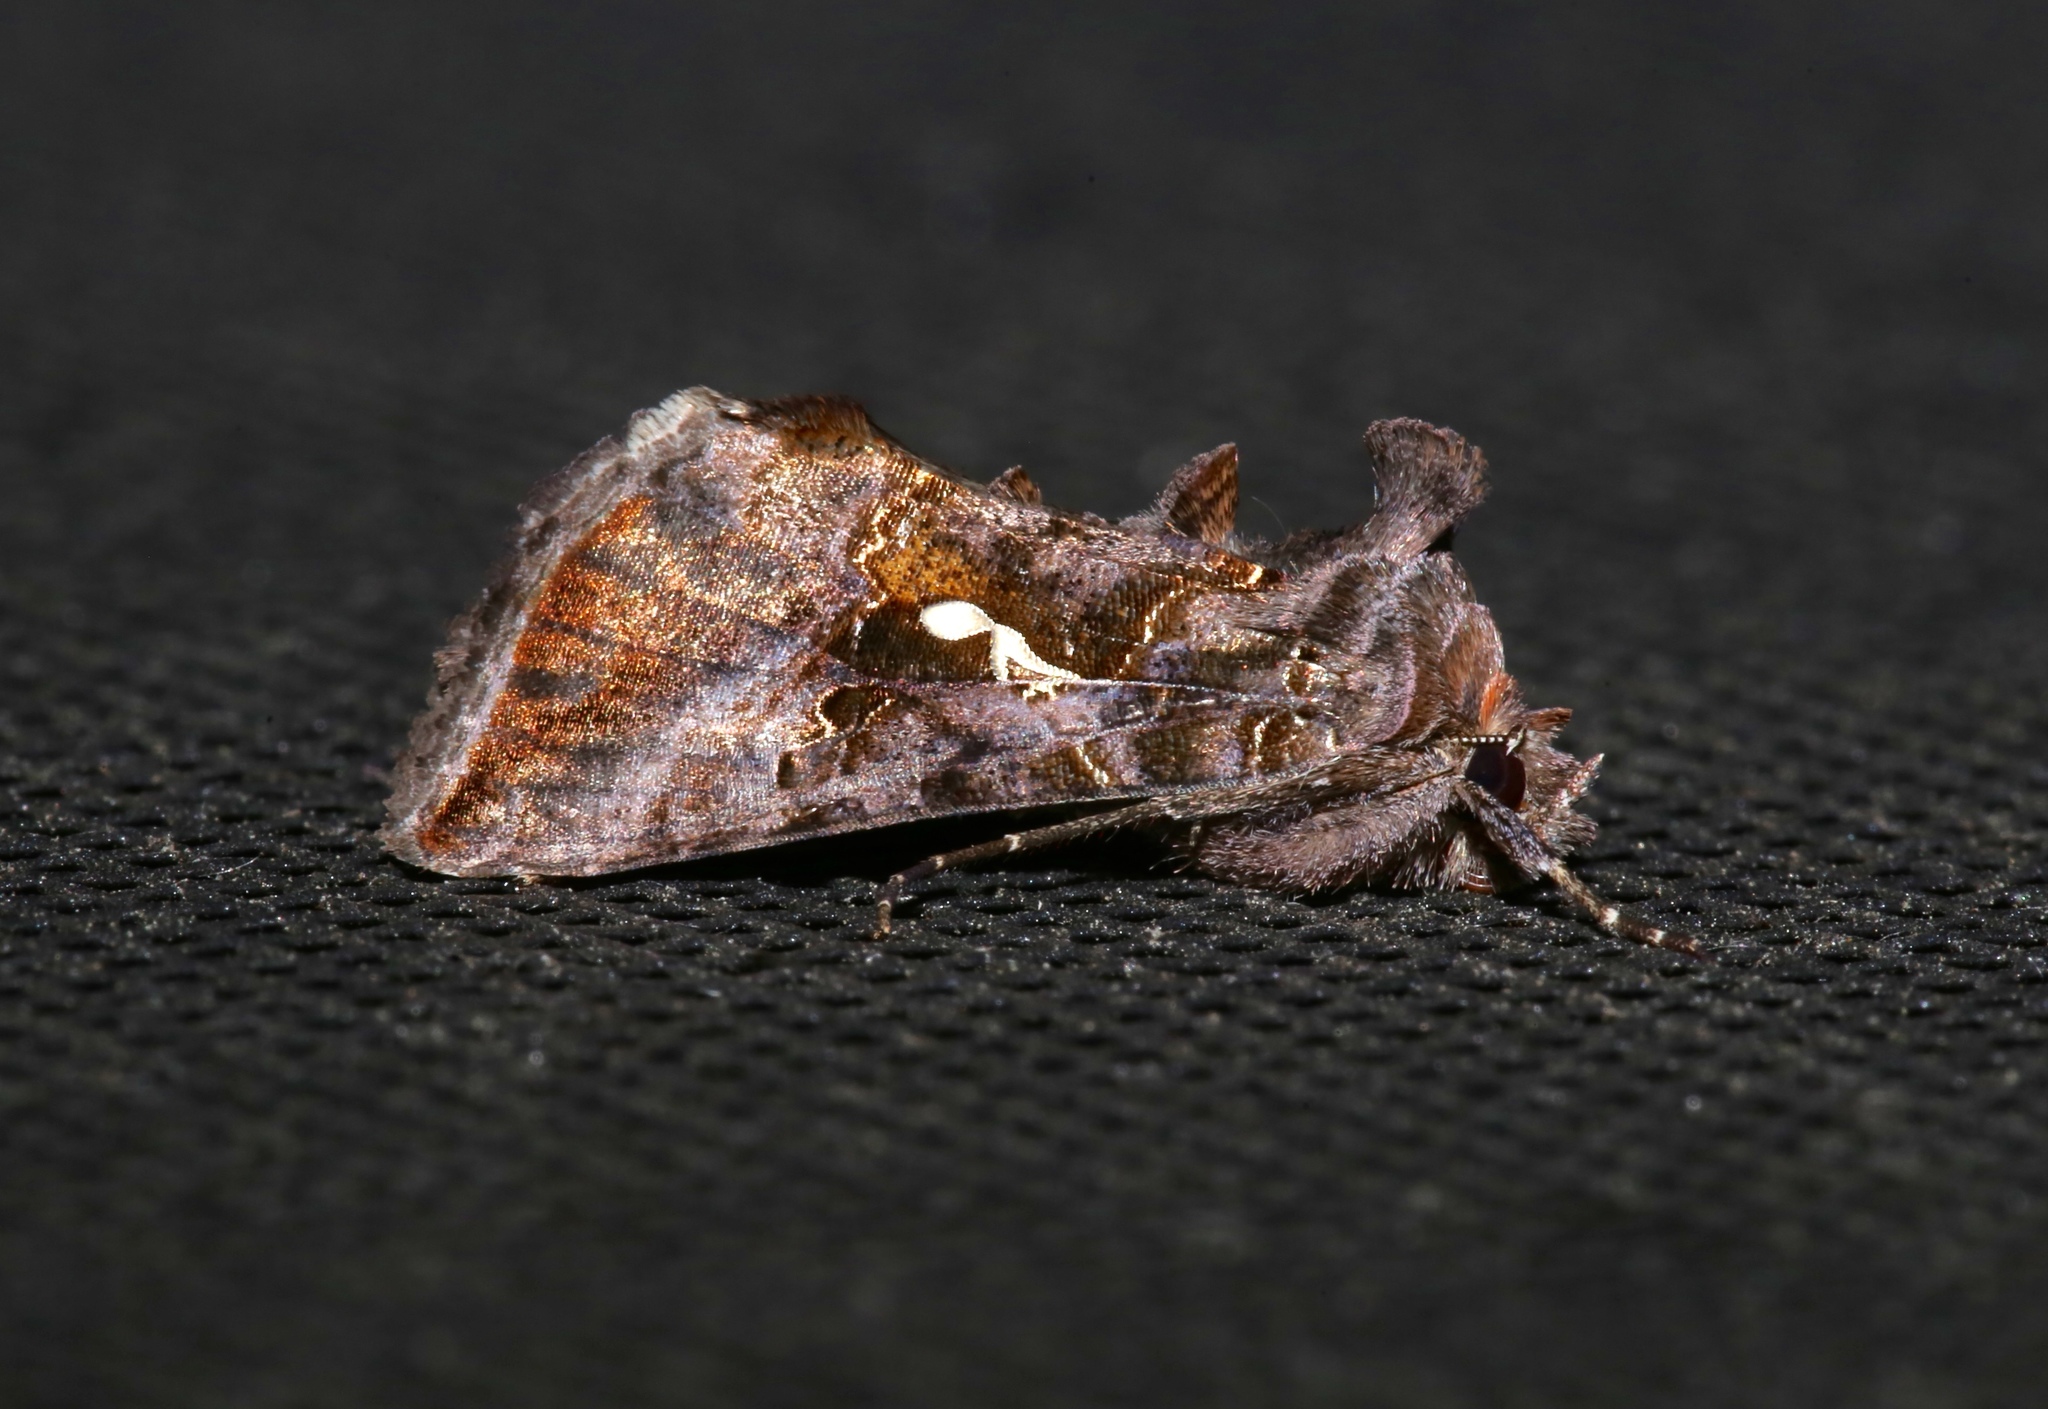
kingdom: Animalia
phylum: Arthropoda
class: Insecta
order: Lepidoptera
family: Noctuidae
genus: Autographa
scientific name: Autographa precationis
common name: Common looper moth
